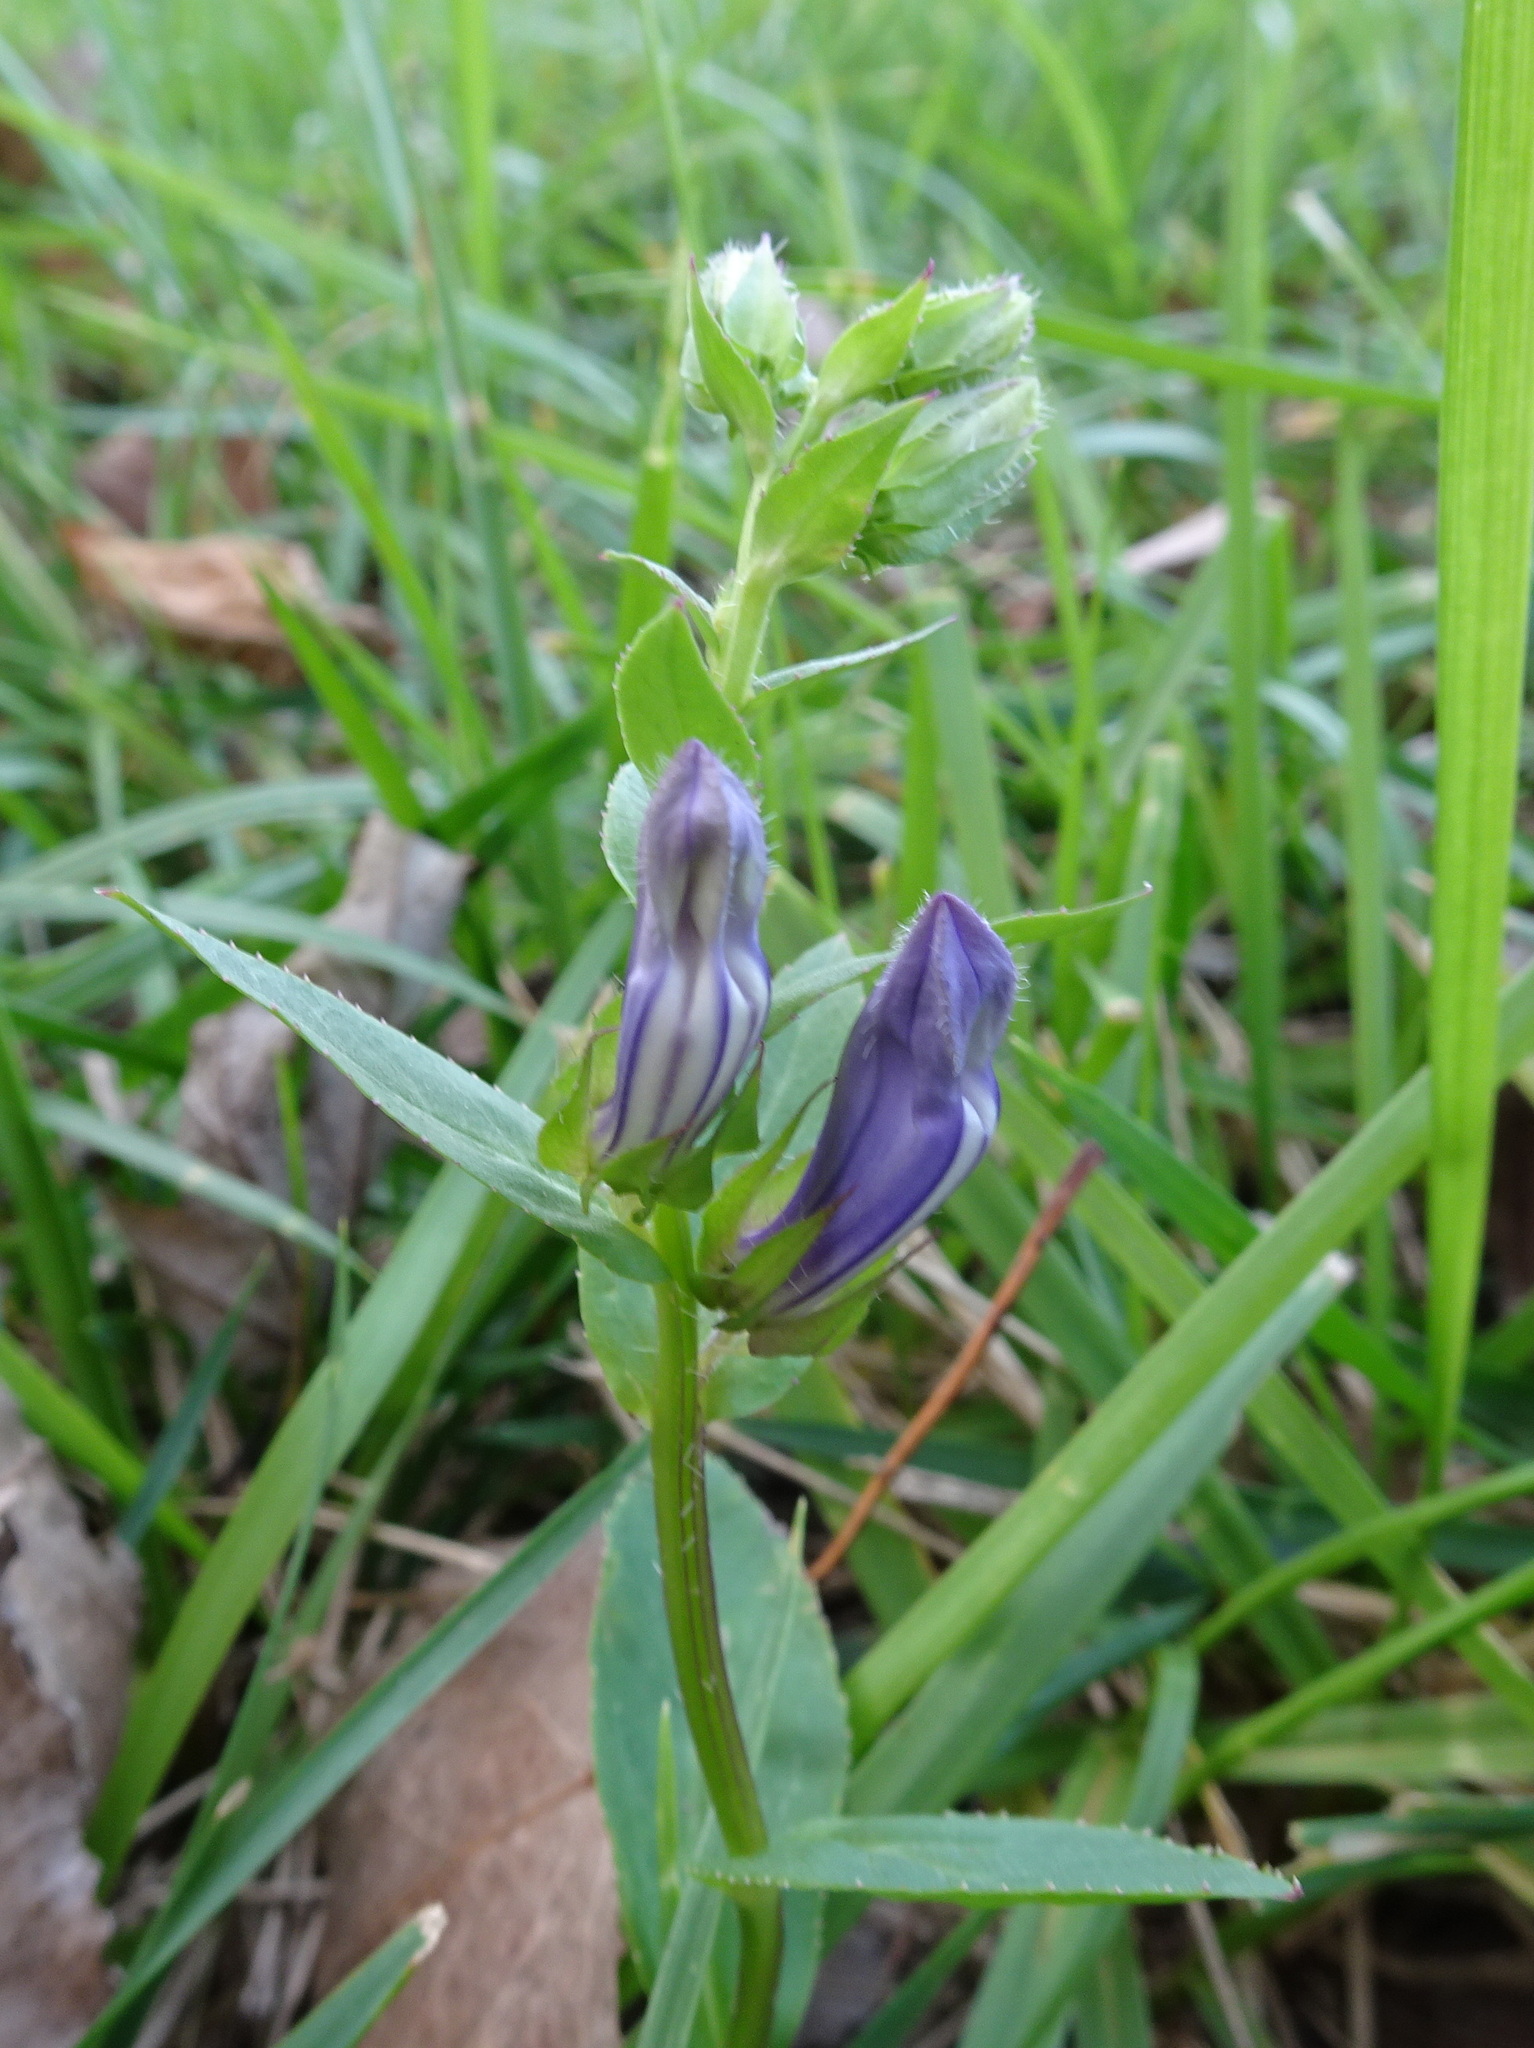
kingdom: Plantae
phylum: Tracheophyta
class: Magnoliopsida
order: Asterales
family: Campanulaceae
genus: Lobelia
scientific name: Lobelia siphilitica
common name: Great lobelia
